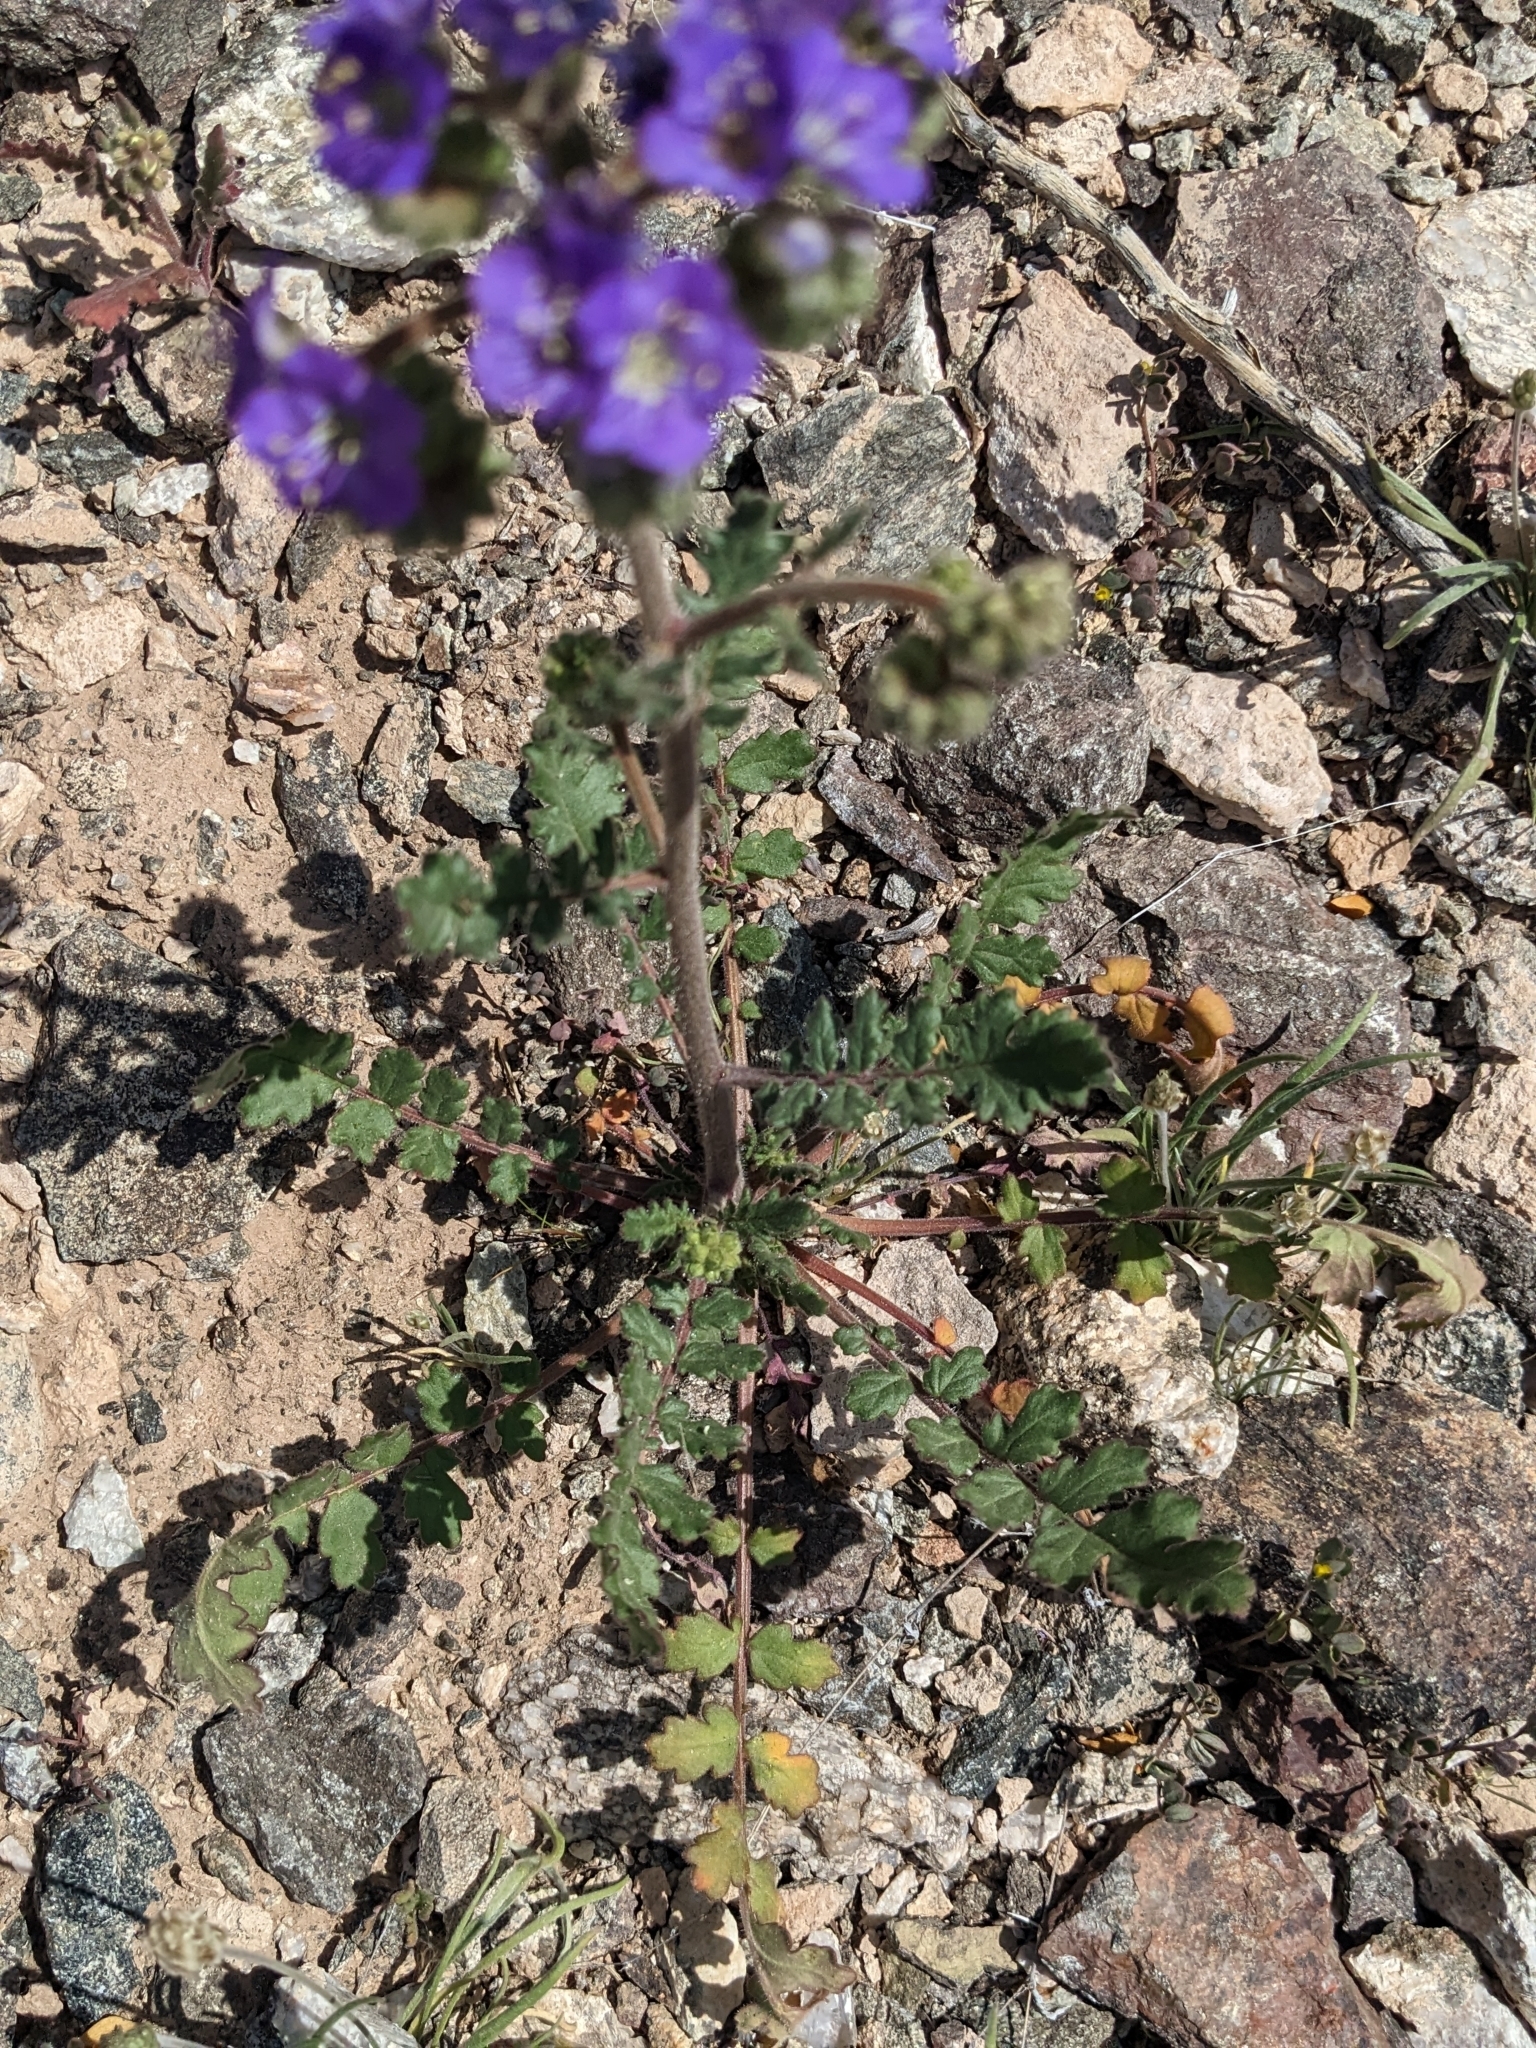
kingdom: Plantae
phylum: Tracheophyta
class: Magnoliopsida
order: Boraginales
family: Hydrophyllaceae
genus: Phacelia
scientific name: Phacelia crenulata
